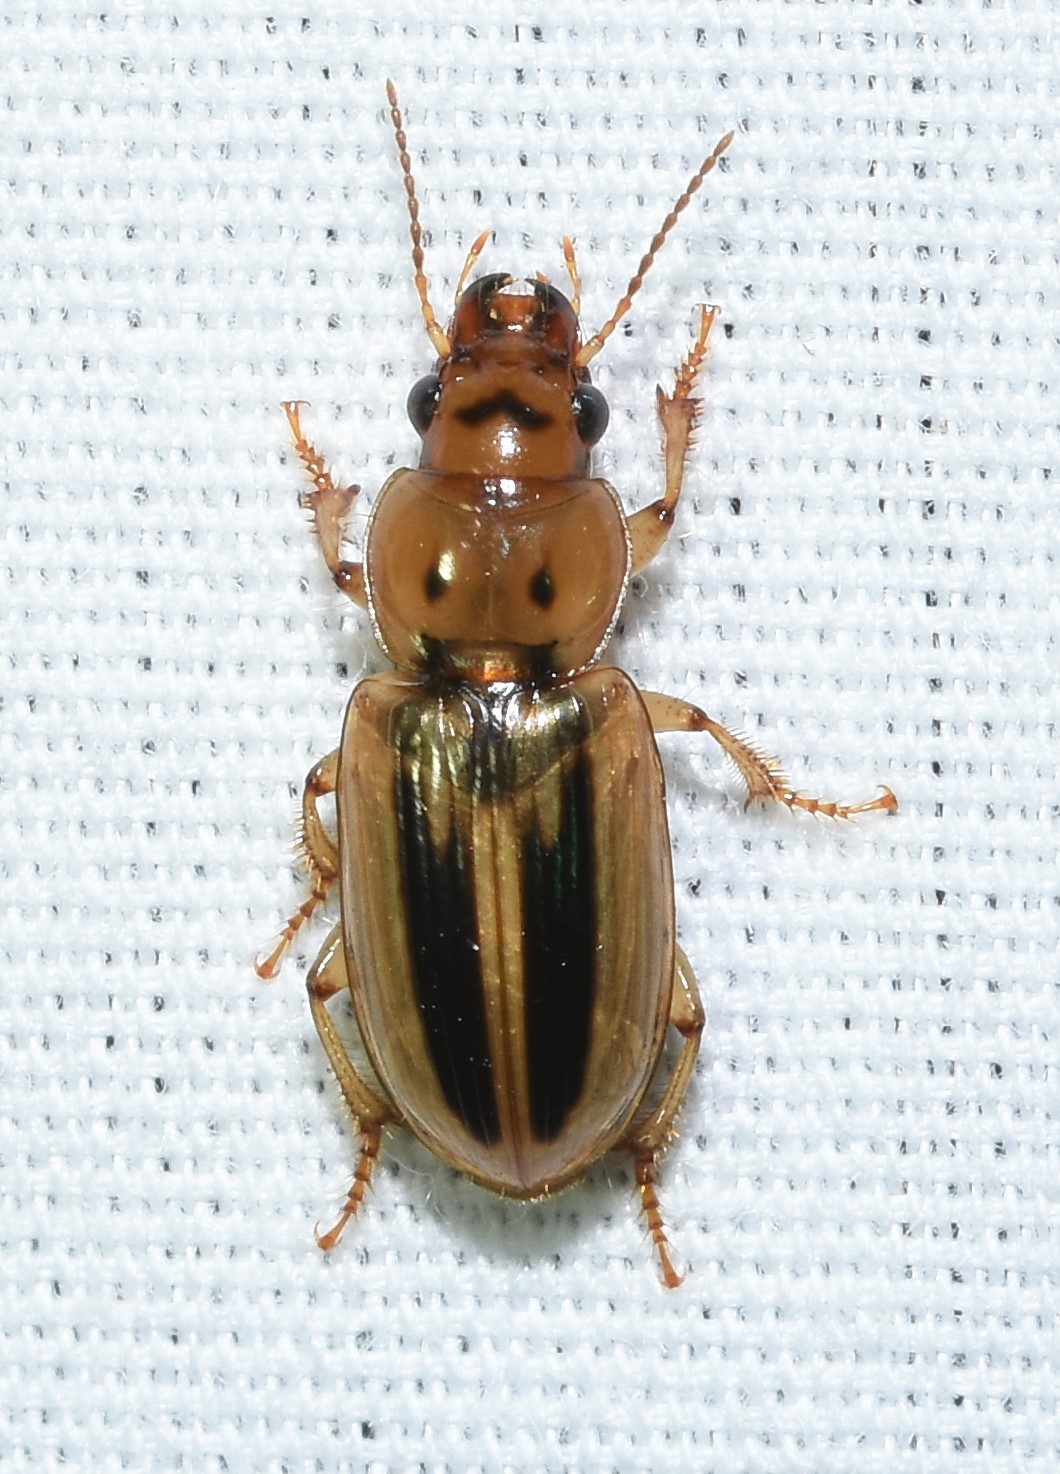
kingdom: Animalia
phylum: Arthropoda
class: Insecta
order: Coleoptera
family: Carabidae
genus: Stenolophus
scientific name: Stenolophus lineola
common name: Lined stenolophus
